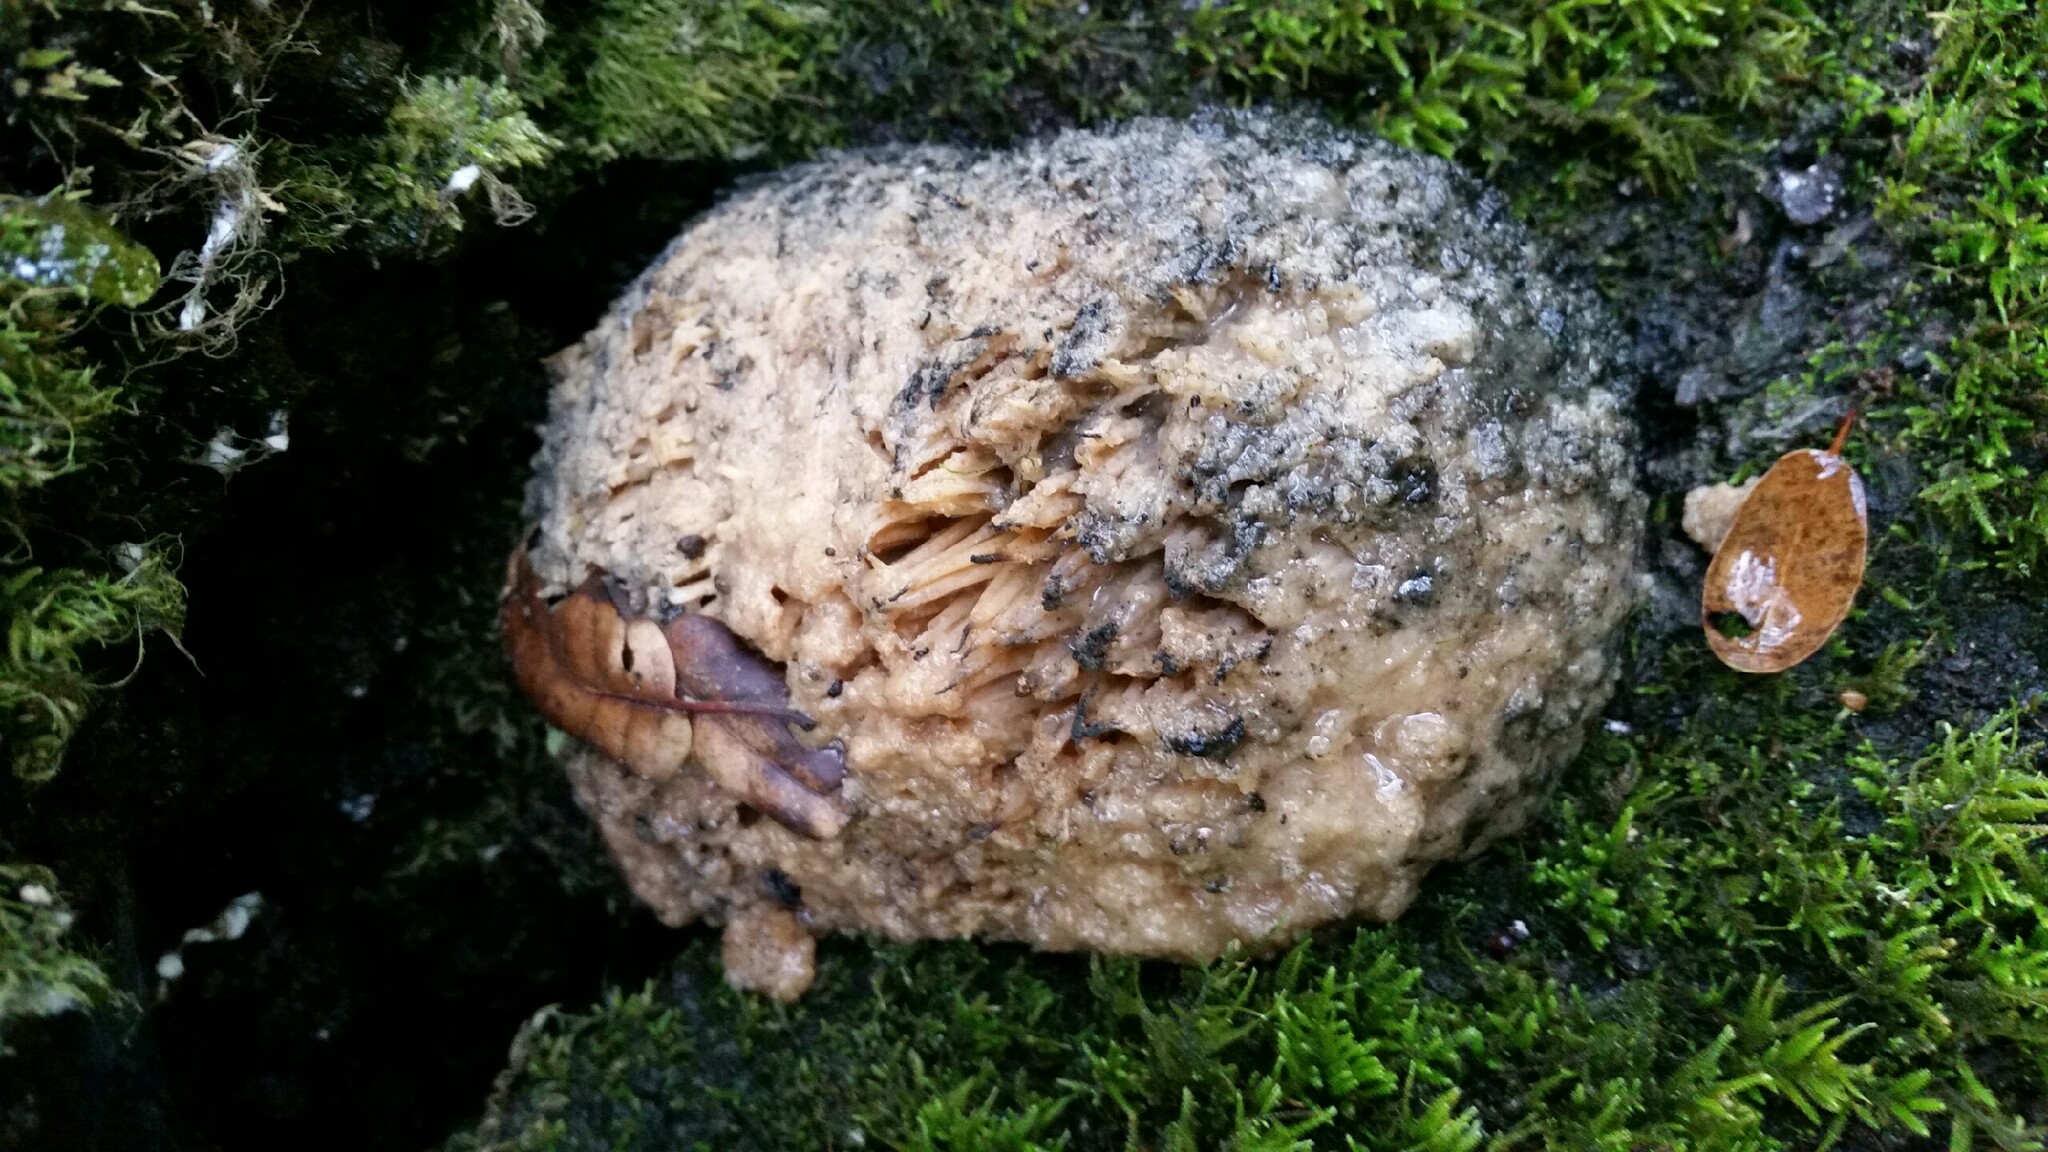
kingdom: Fungi
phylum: Basidiomycota
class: Agaricomycetes
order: Russulales
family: Hericiaceae
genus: Hericium
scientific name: Hericium erinaceus
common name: Bearded tooth
